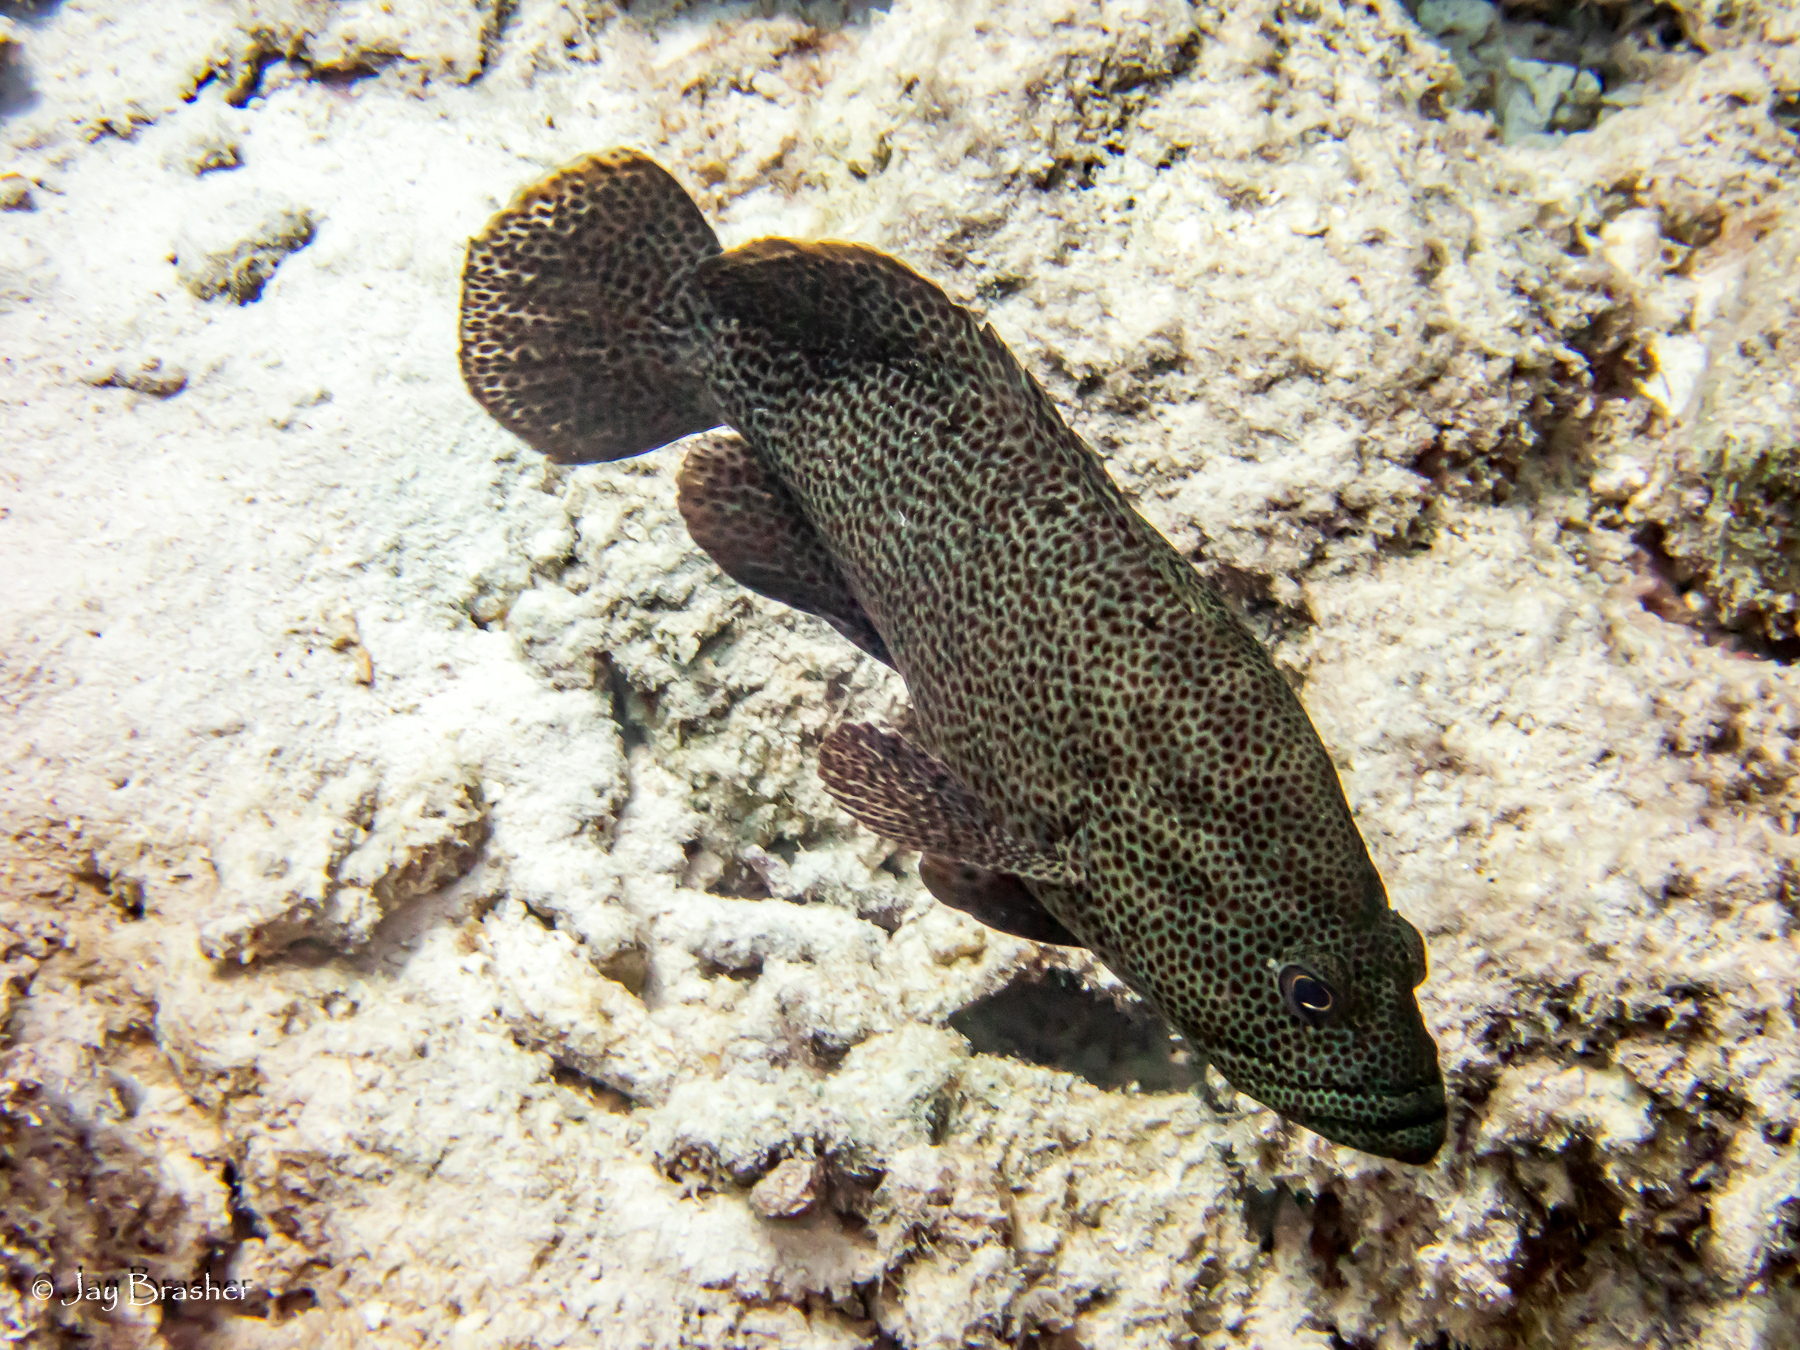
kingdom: Animalia
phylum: Chordata
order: Perciformes
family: Serranidae
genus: Cephalopholis
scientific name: Cephalopholis cruentata
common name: Graysby
